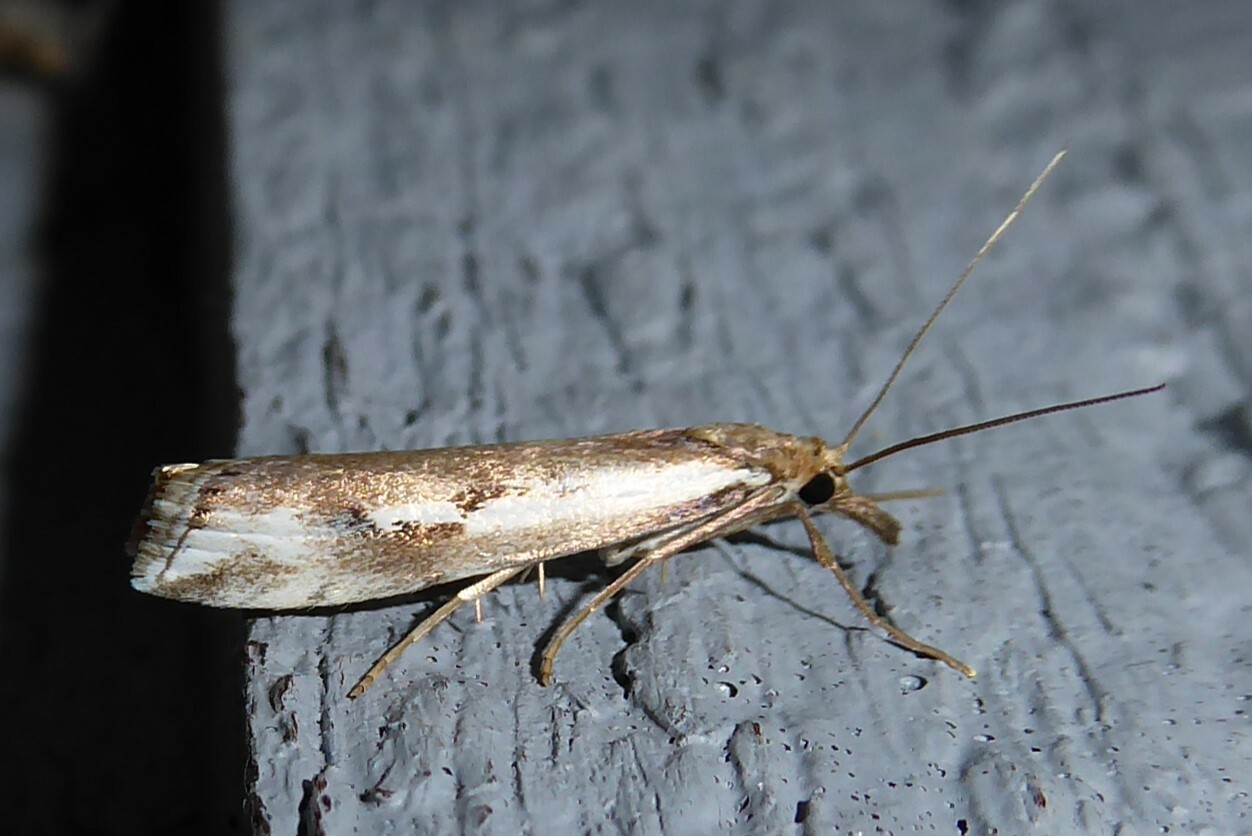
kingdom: Animalia
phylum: Arthropoda
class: Insecta
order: Lepidoptera
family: Crambidae
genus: Orocrambus
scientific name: Orocrambus vulgaris
